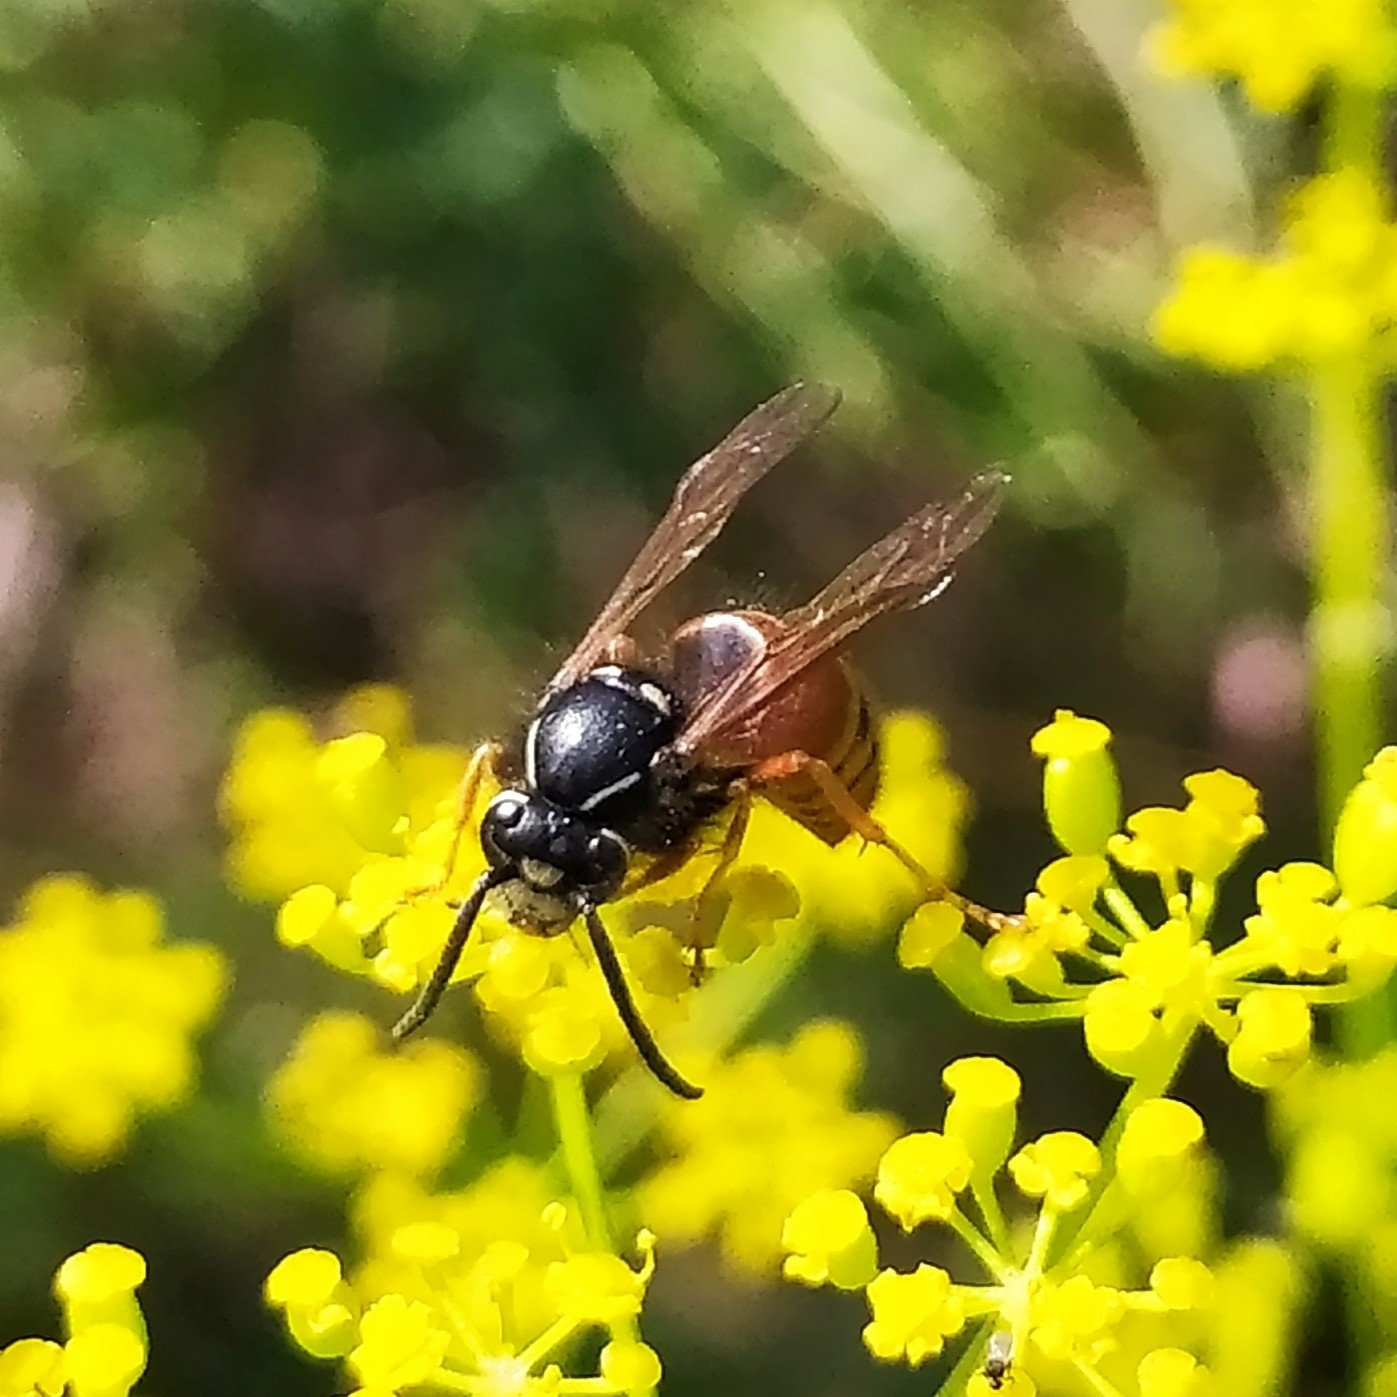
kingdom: Animalia
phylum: Arthropoda
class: Insecta
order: Hymenoptera
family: Vespidae
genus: Vespula
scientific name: Vespula rufa
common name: Red wasp
